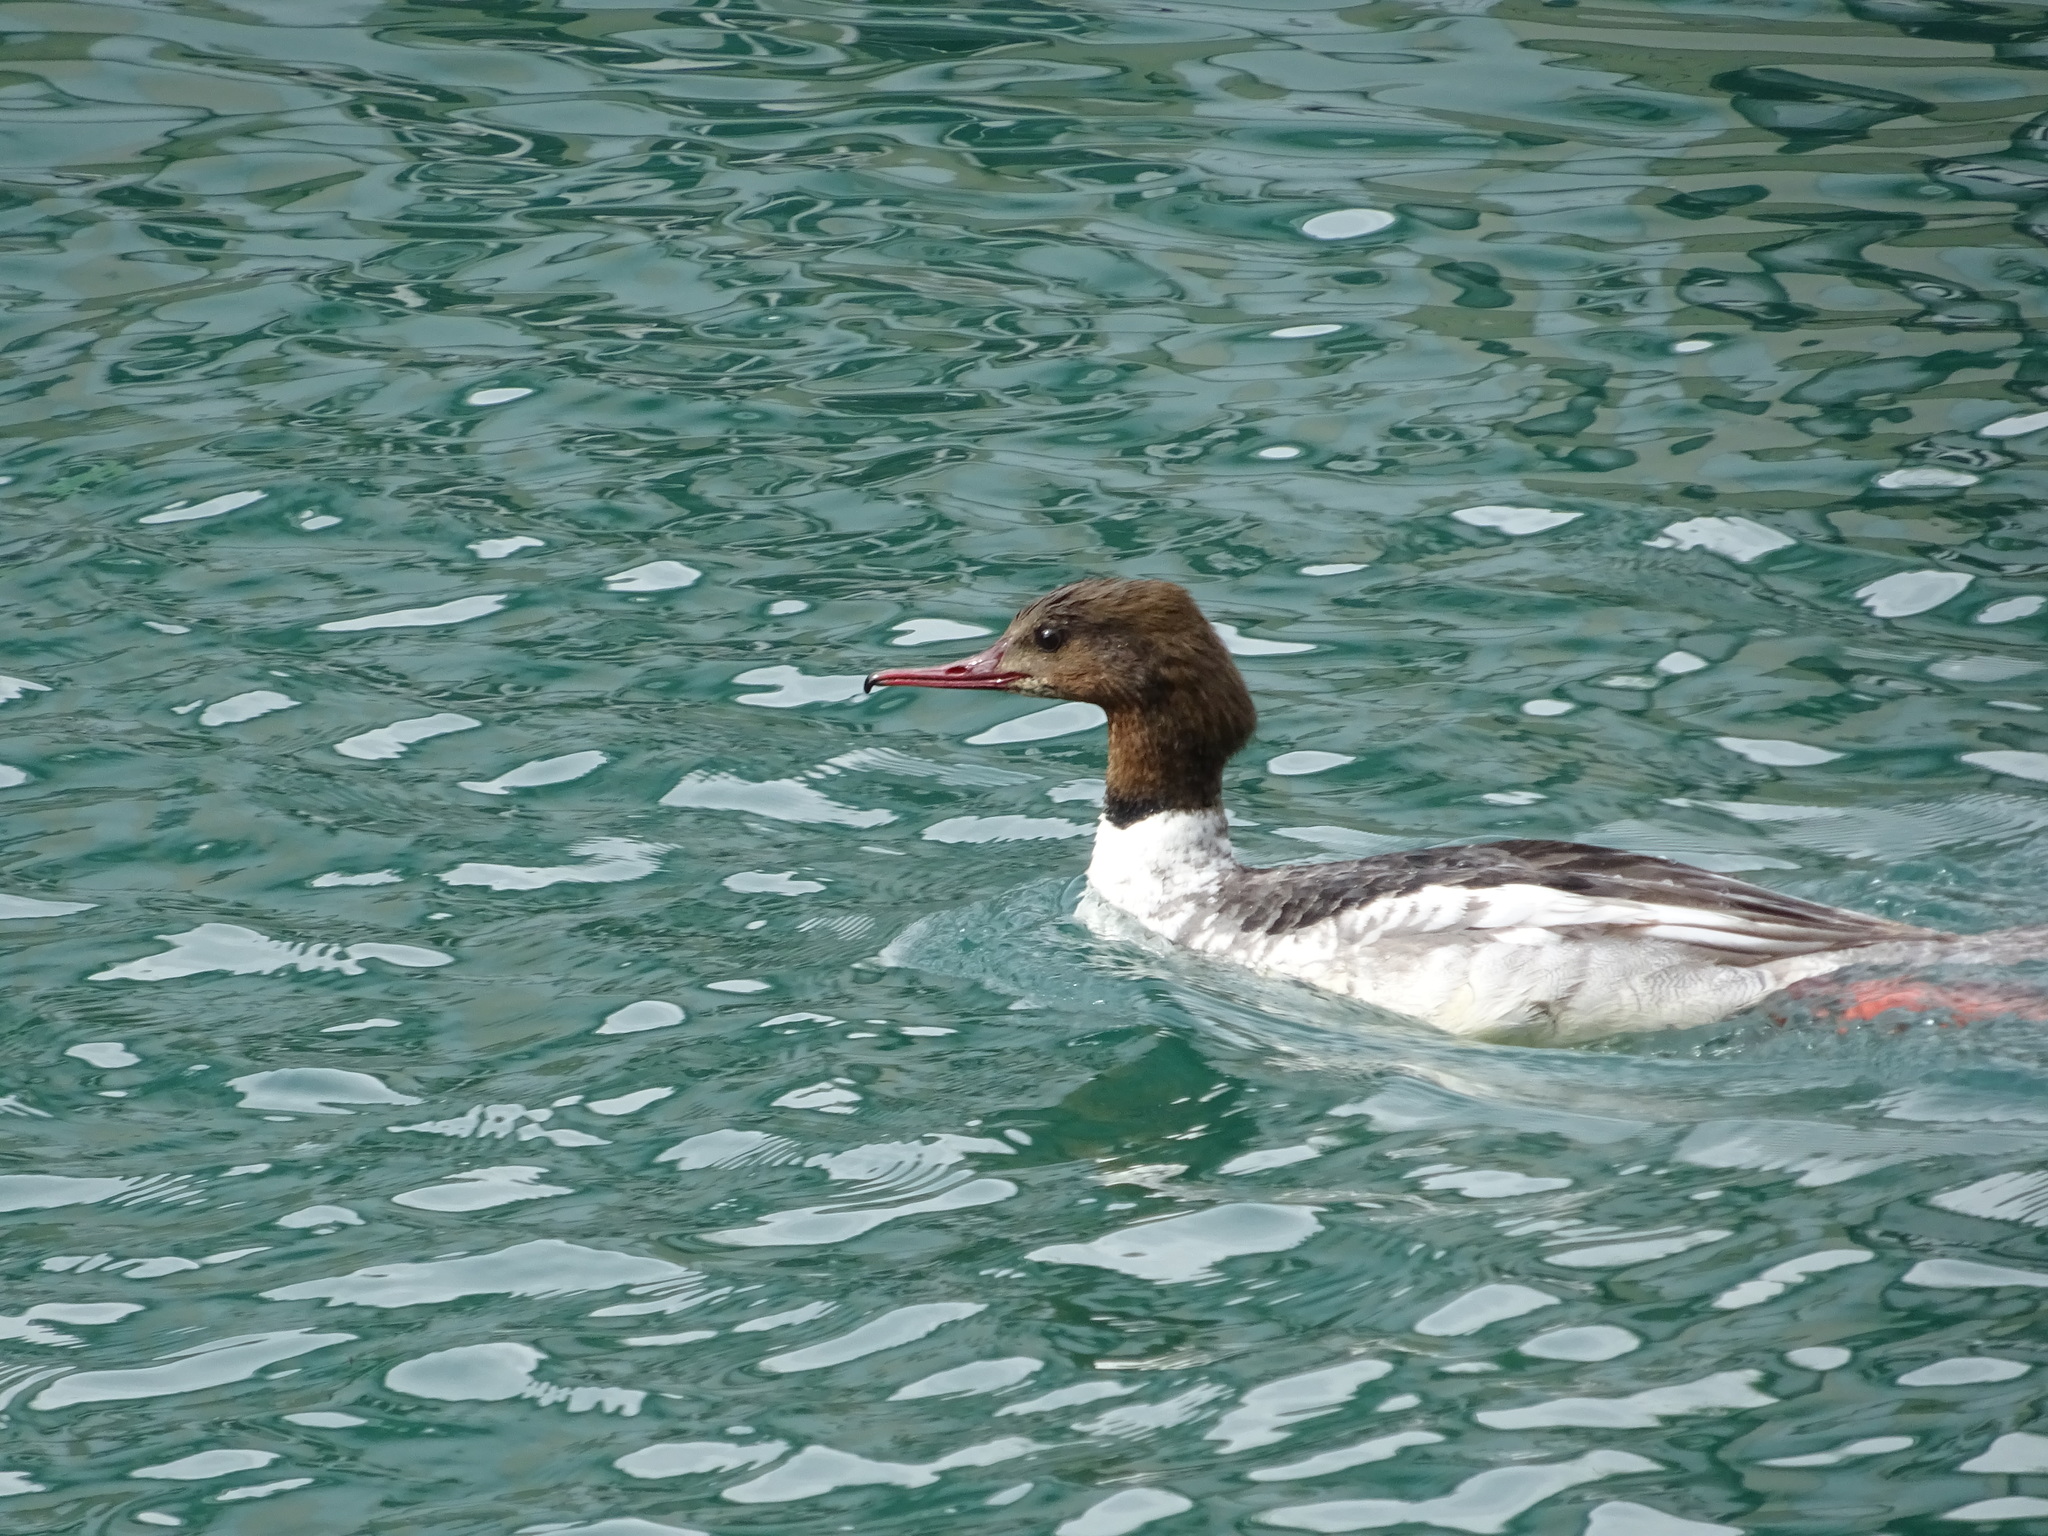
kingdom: Animalia
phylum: Chordata
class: Aves
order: Anseriformes
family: Anatidae
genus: Mergus
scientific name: Mergus merganser
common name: Common merganser
